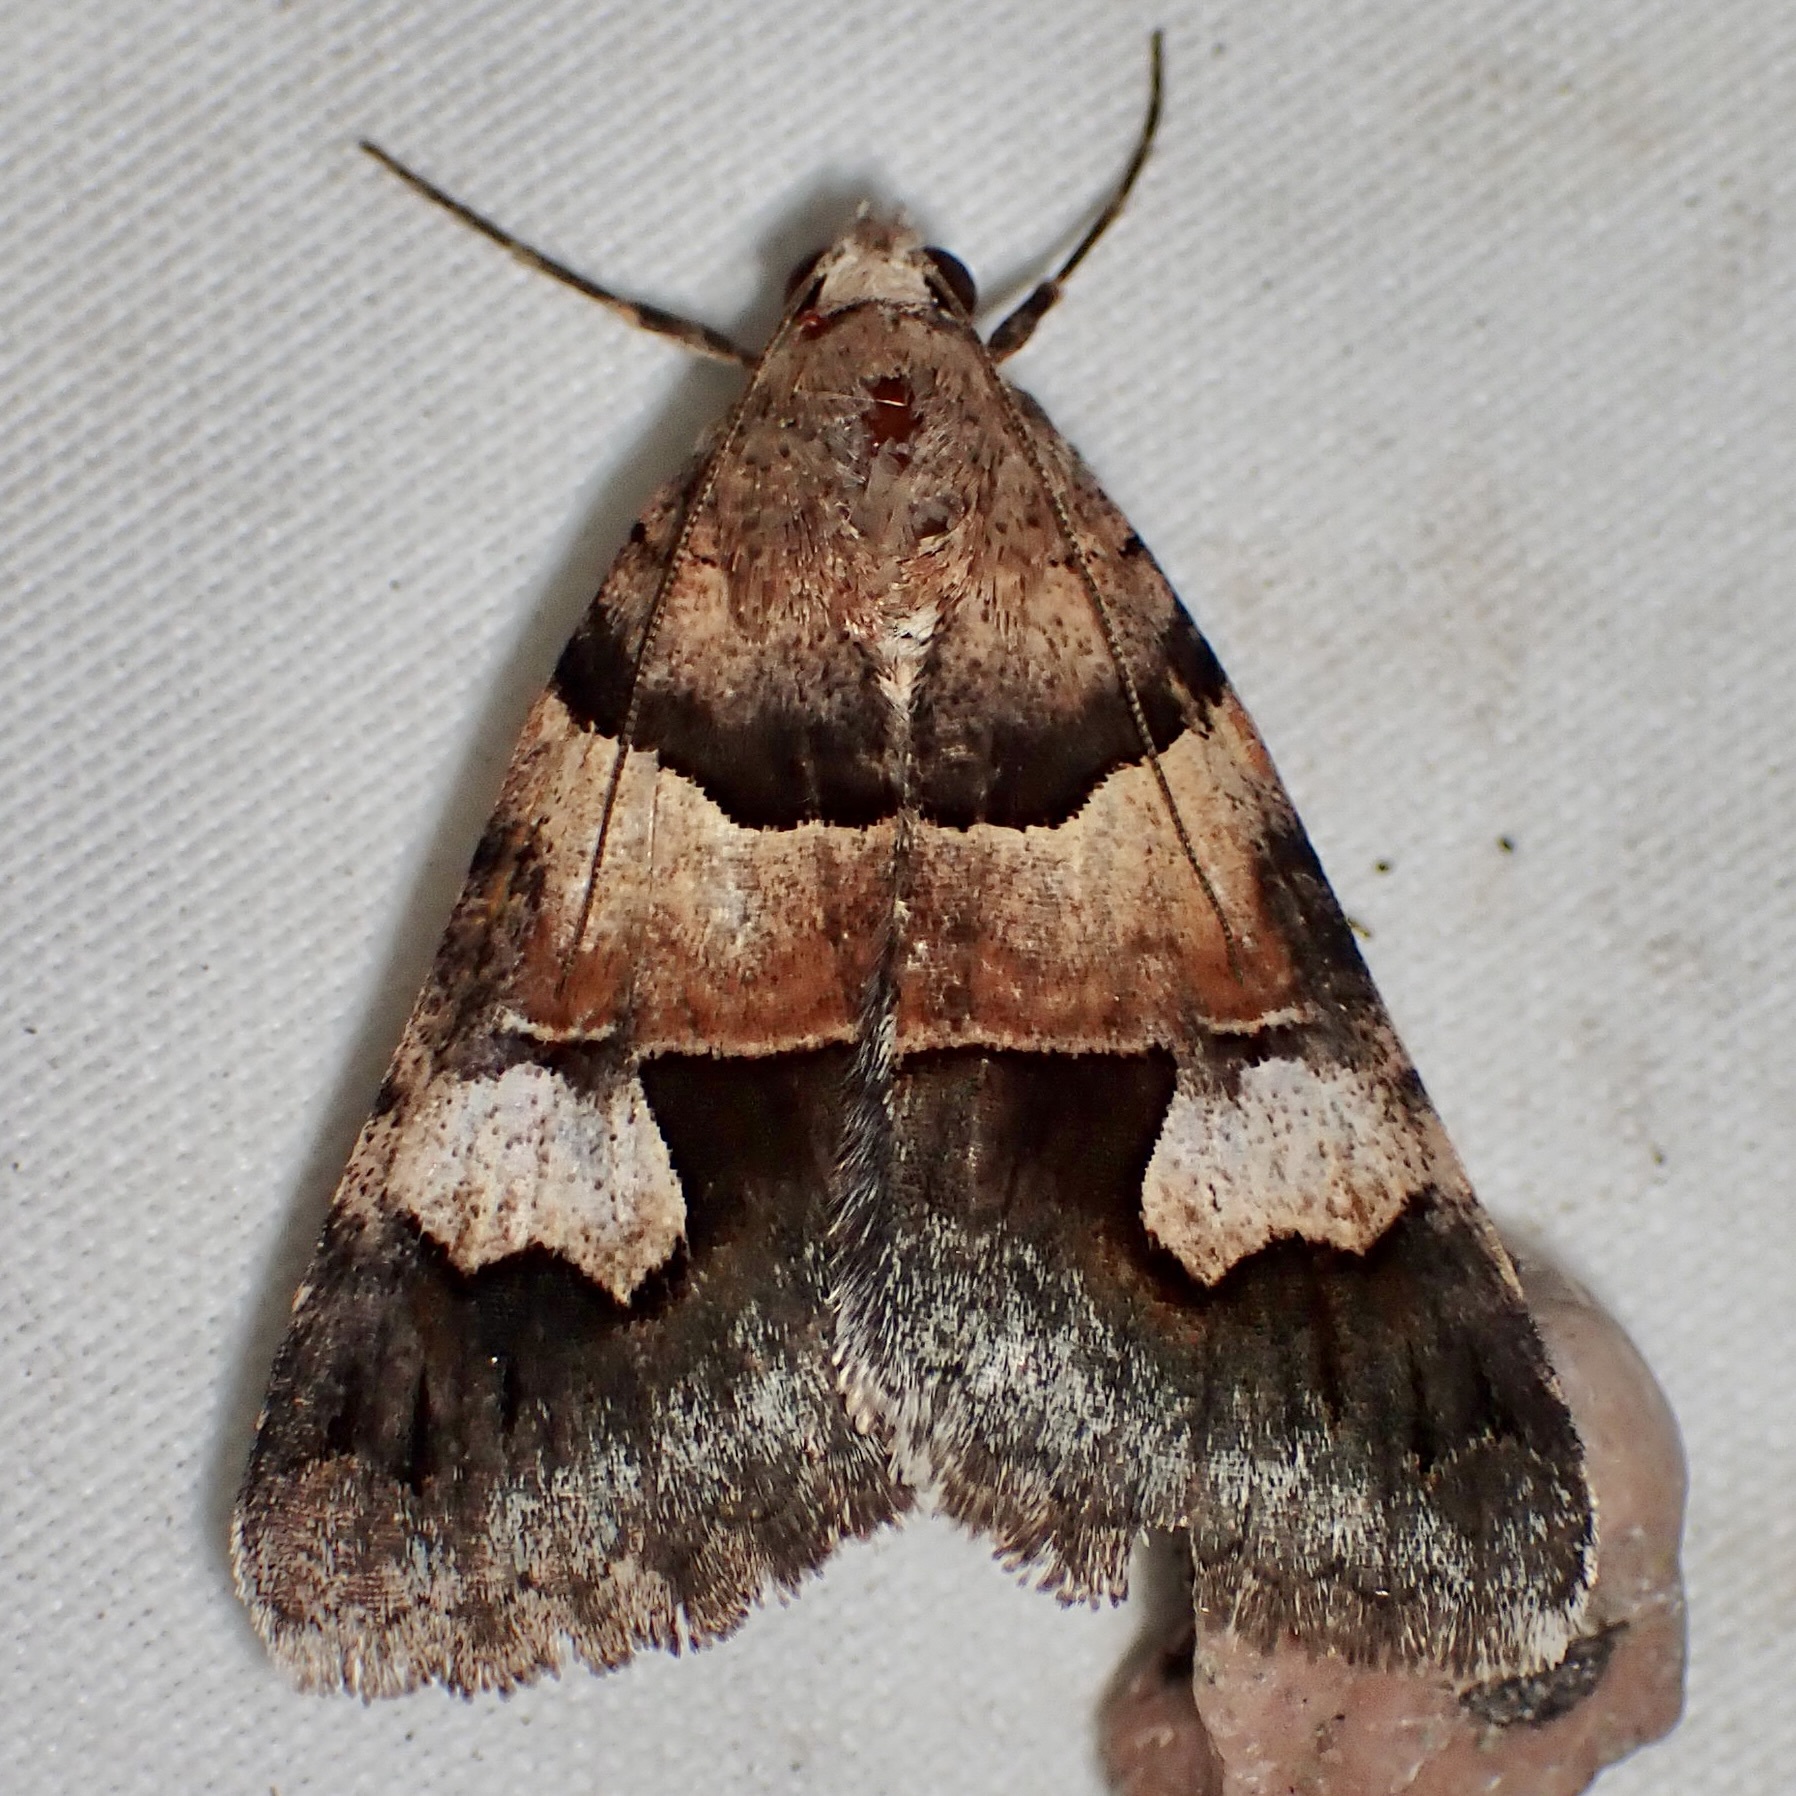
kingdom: Animalia
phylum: Arthropoda
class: Insecta
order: Lepidoptera
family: Erebidae
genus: Drasteria
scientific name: Drasteria pallescens
